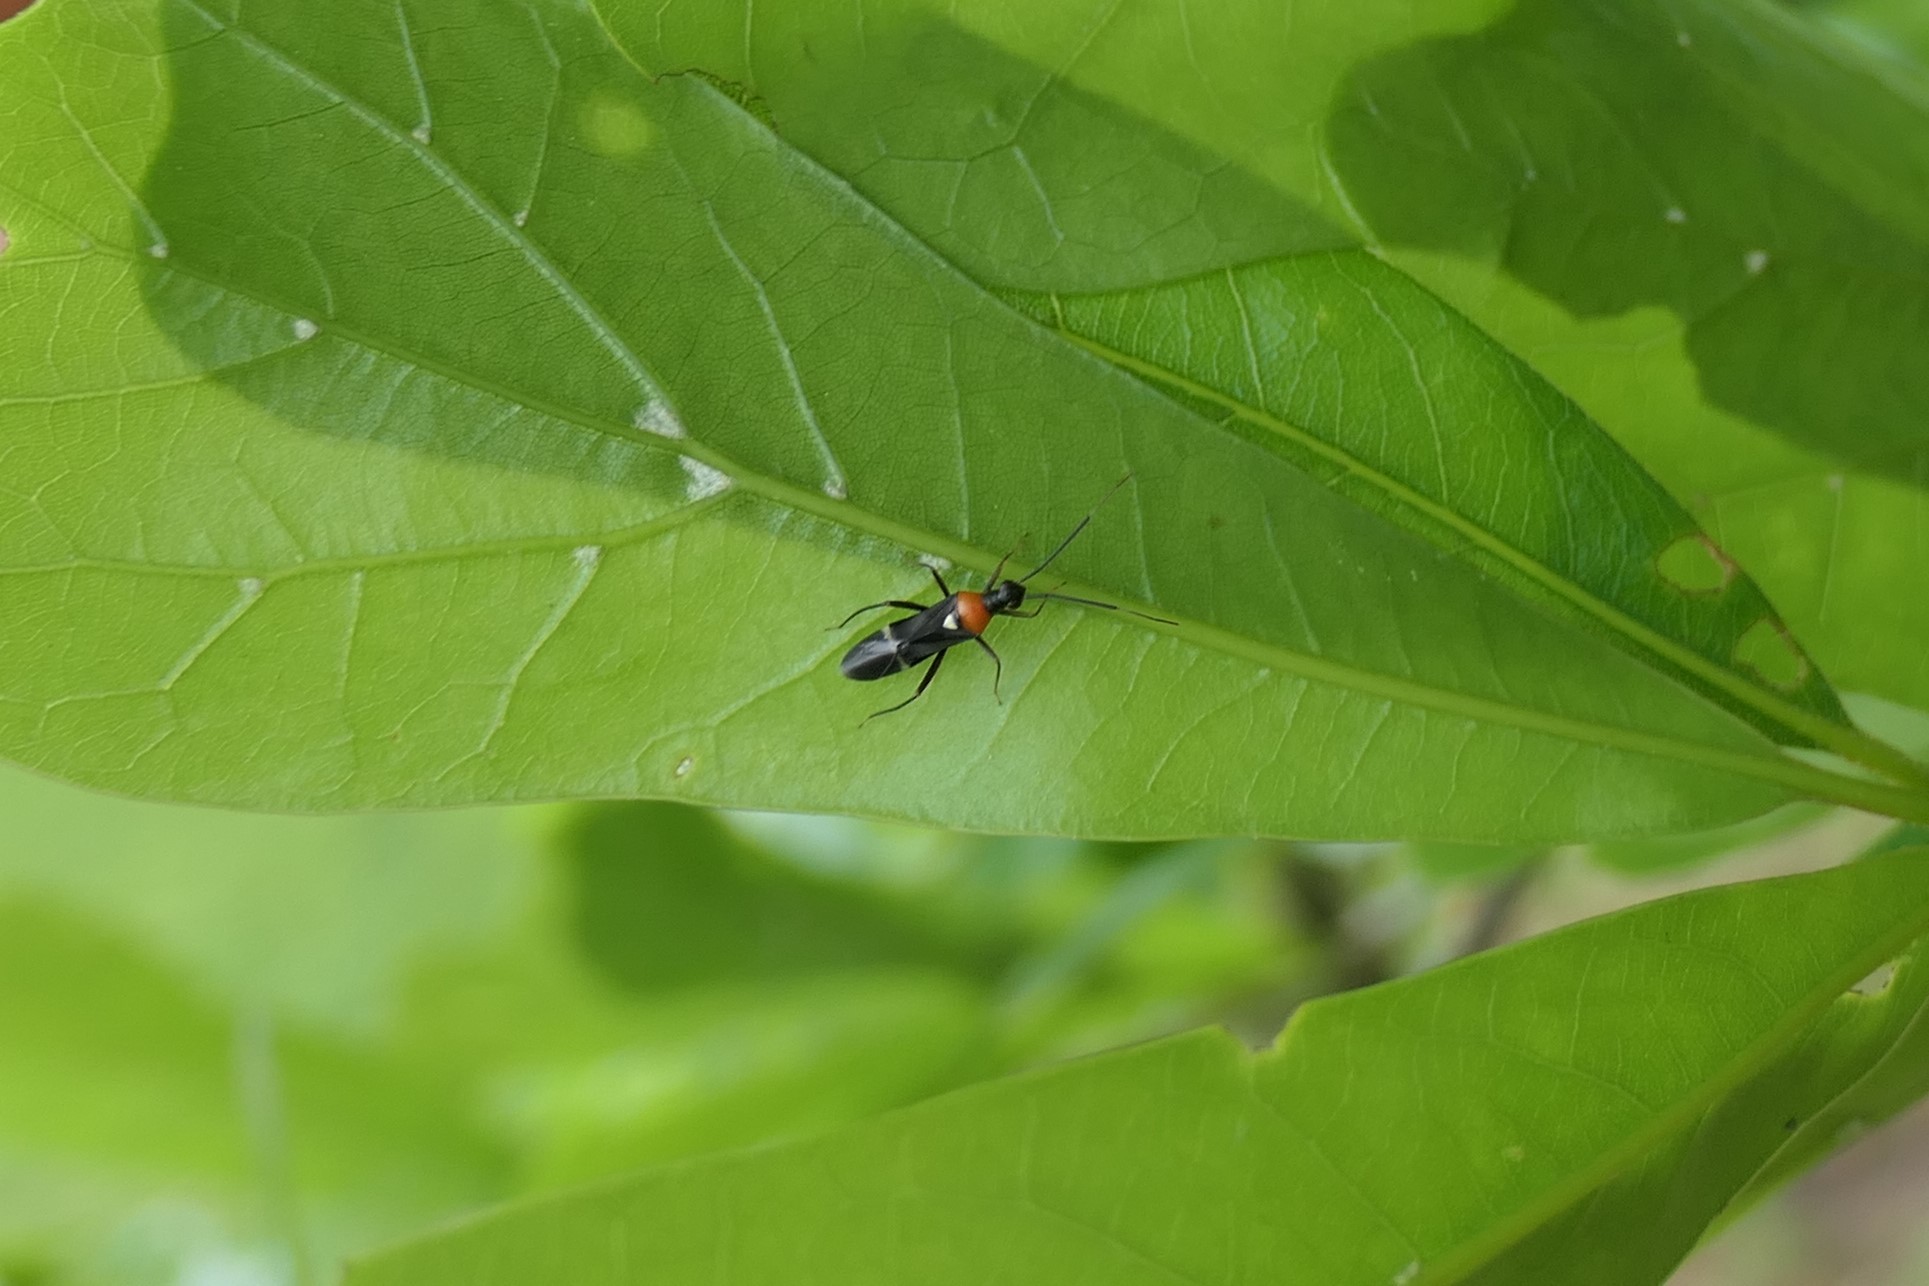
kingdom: Animalia
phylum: Arthropoda
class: Insecta
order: Hemiptera
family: Miridae
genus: Pseudoxenetus
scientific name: Pseudoxenetus regalis
